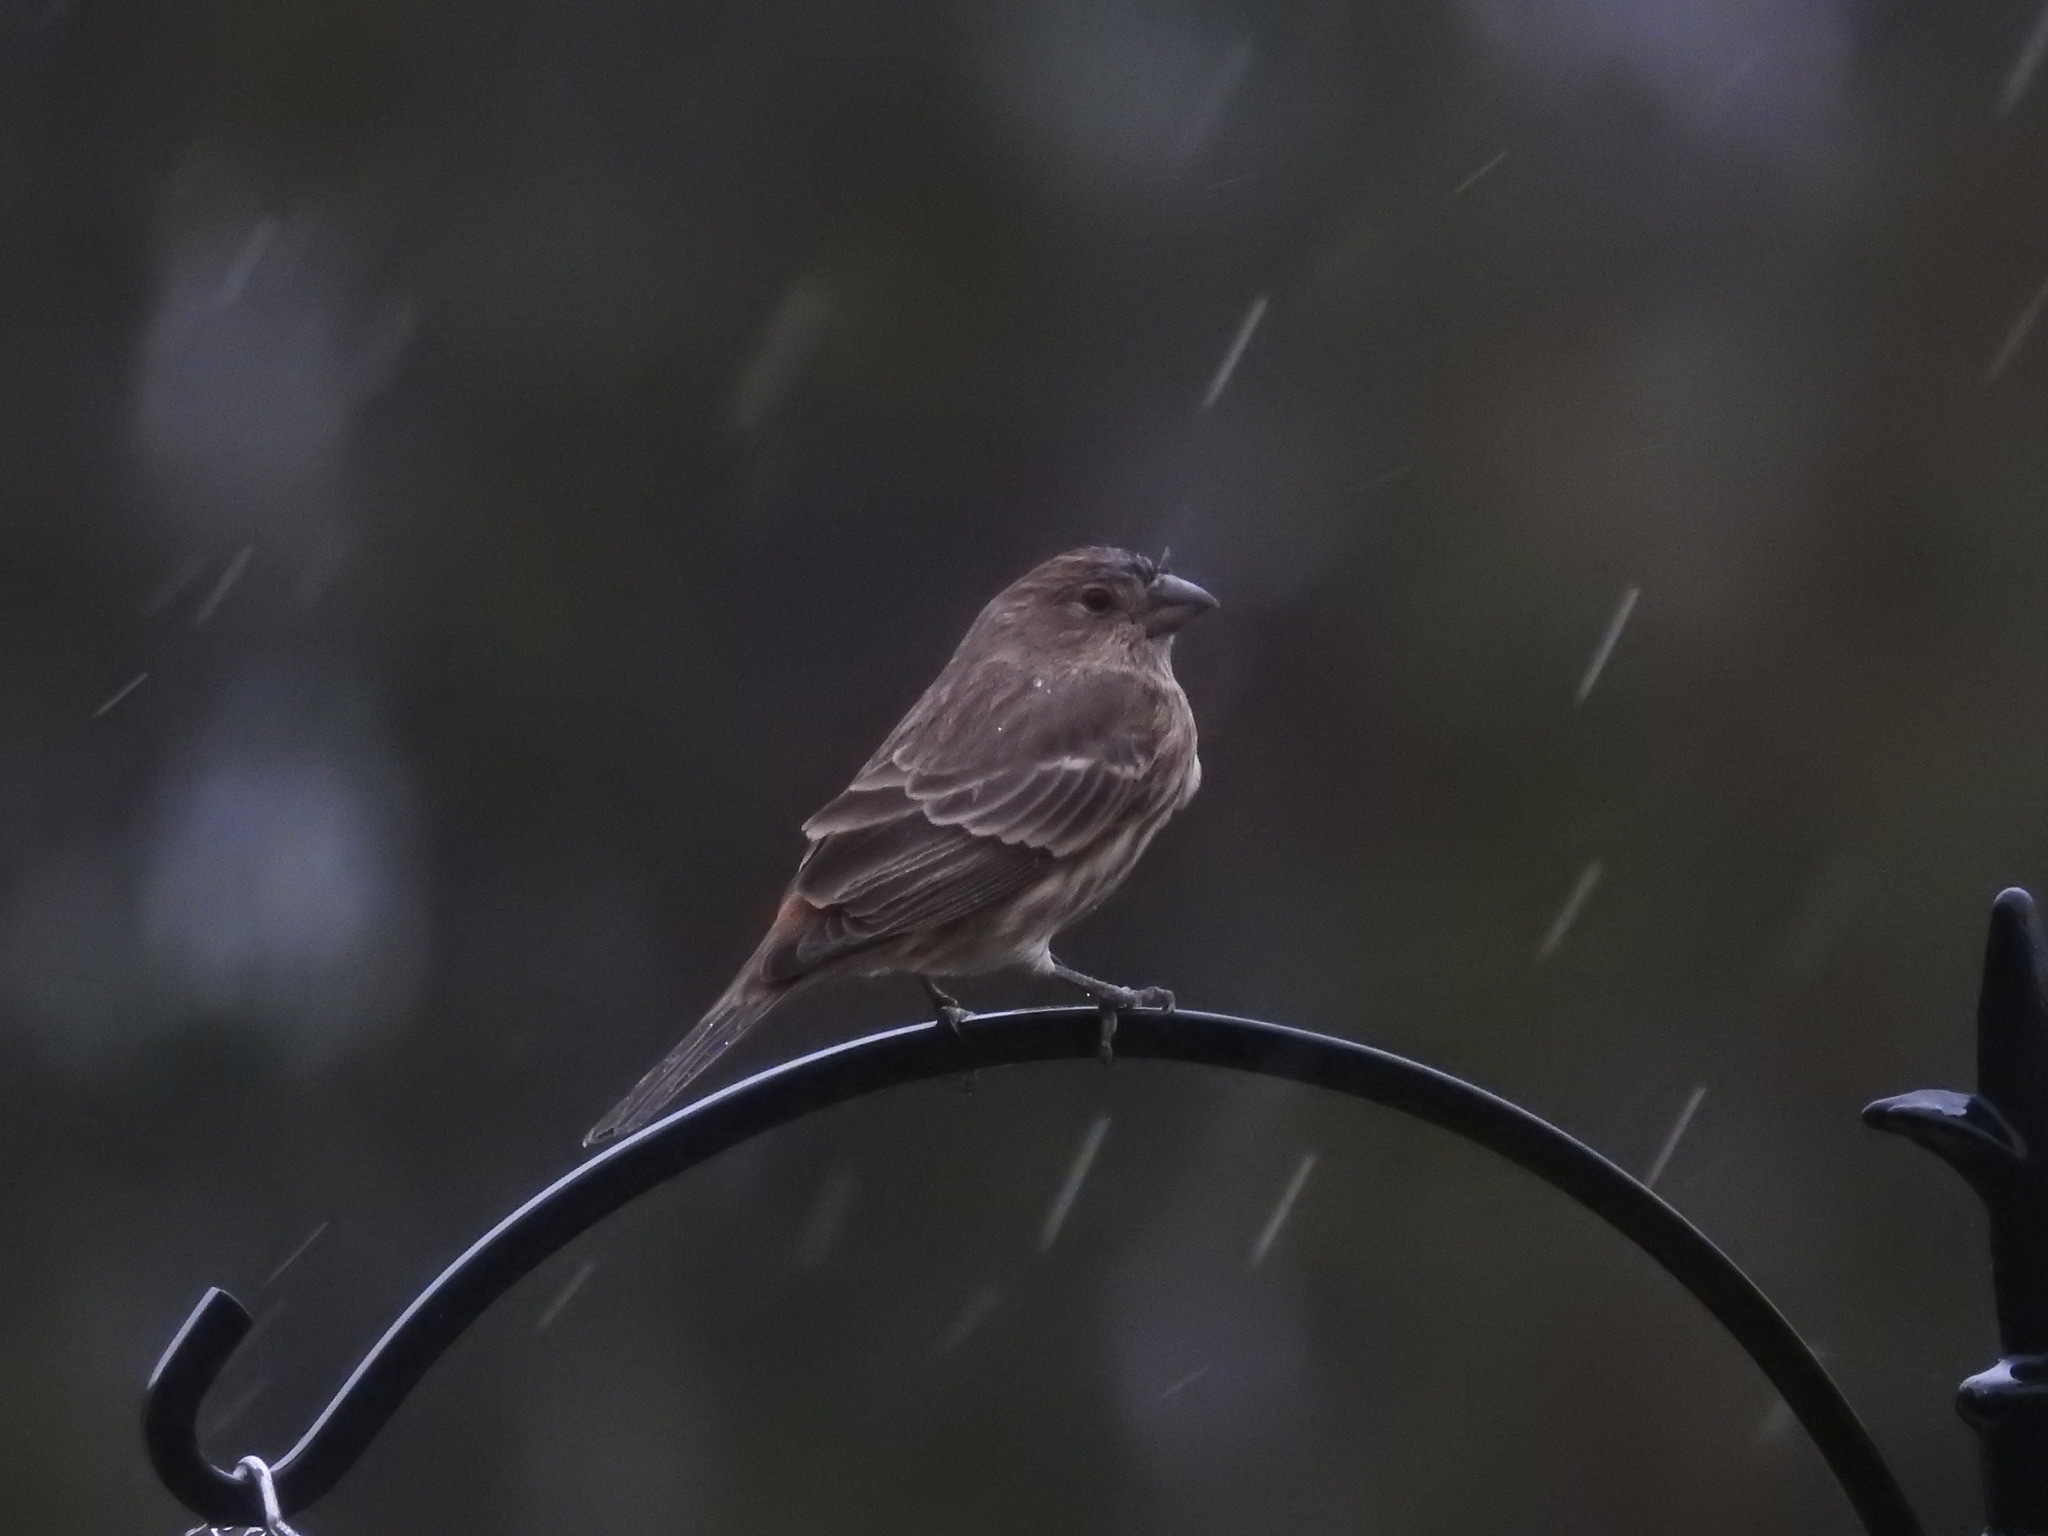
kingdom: Animalia
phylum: Chordata
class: Aves
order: Passeriformes
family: Fringillidae
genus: Haemorhous
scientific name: Haemorhous mexicanus
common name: House finch
